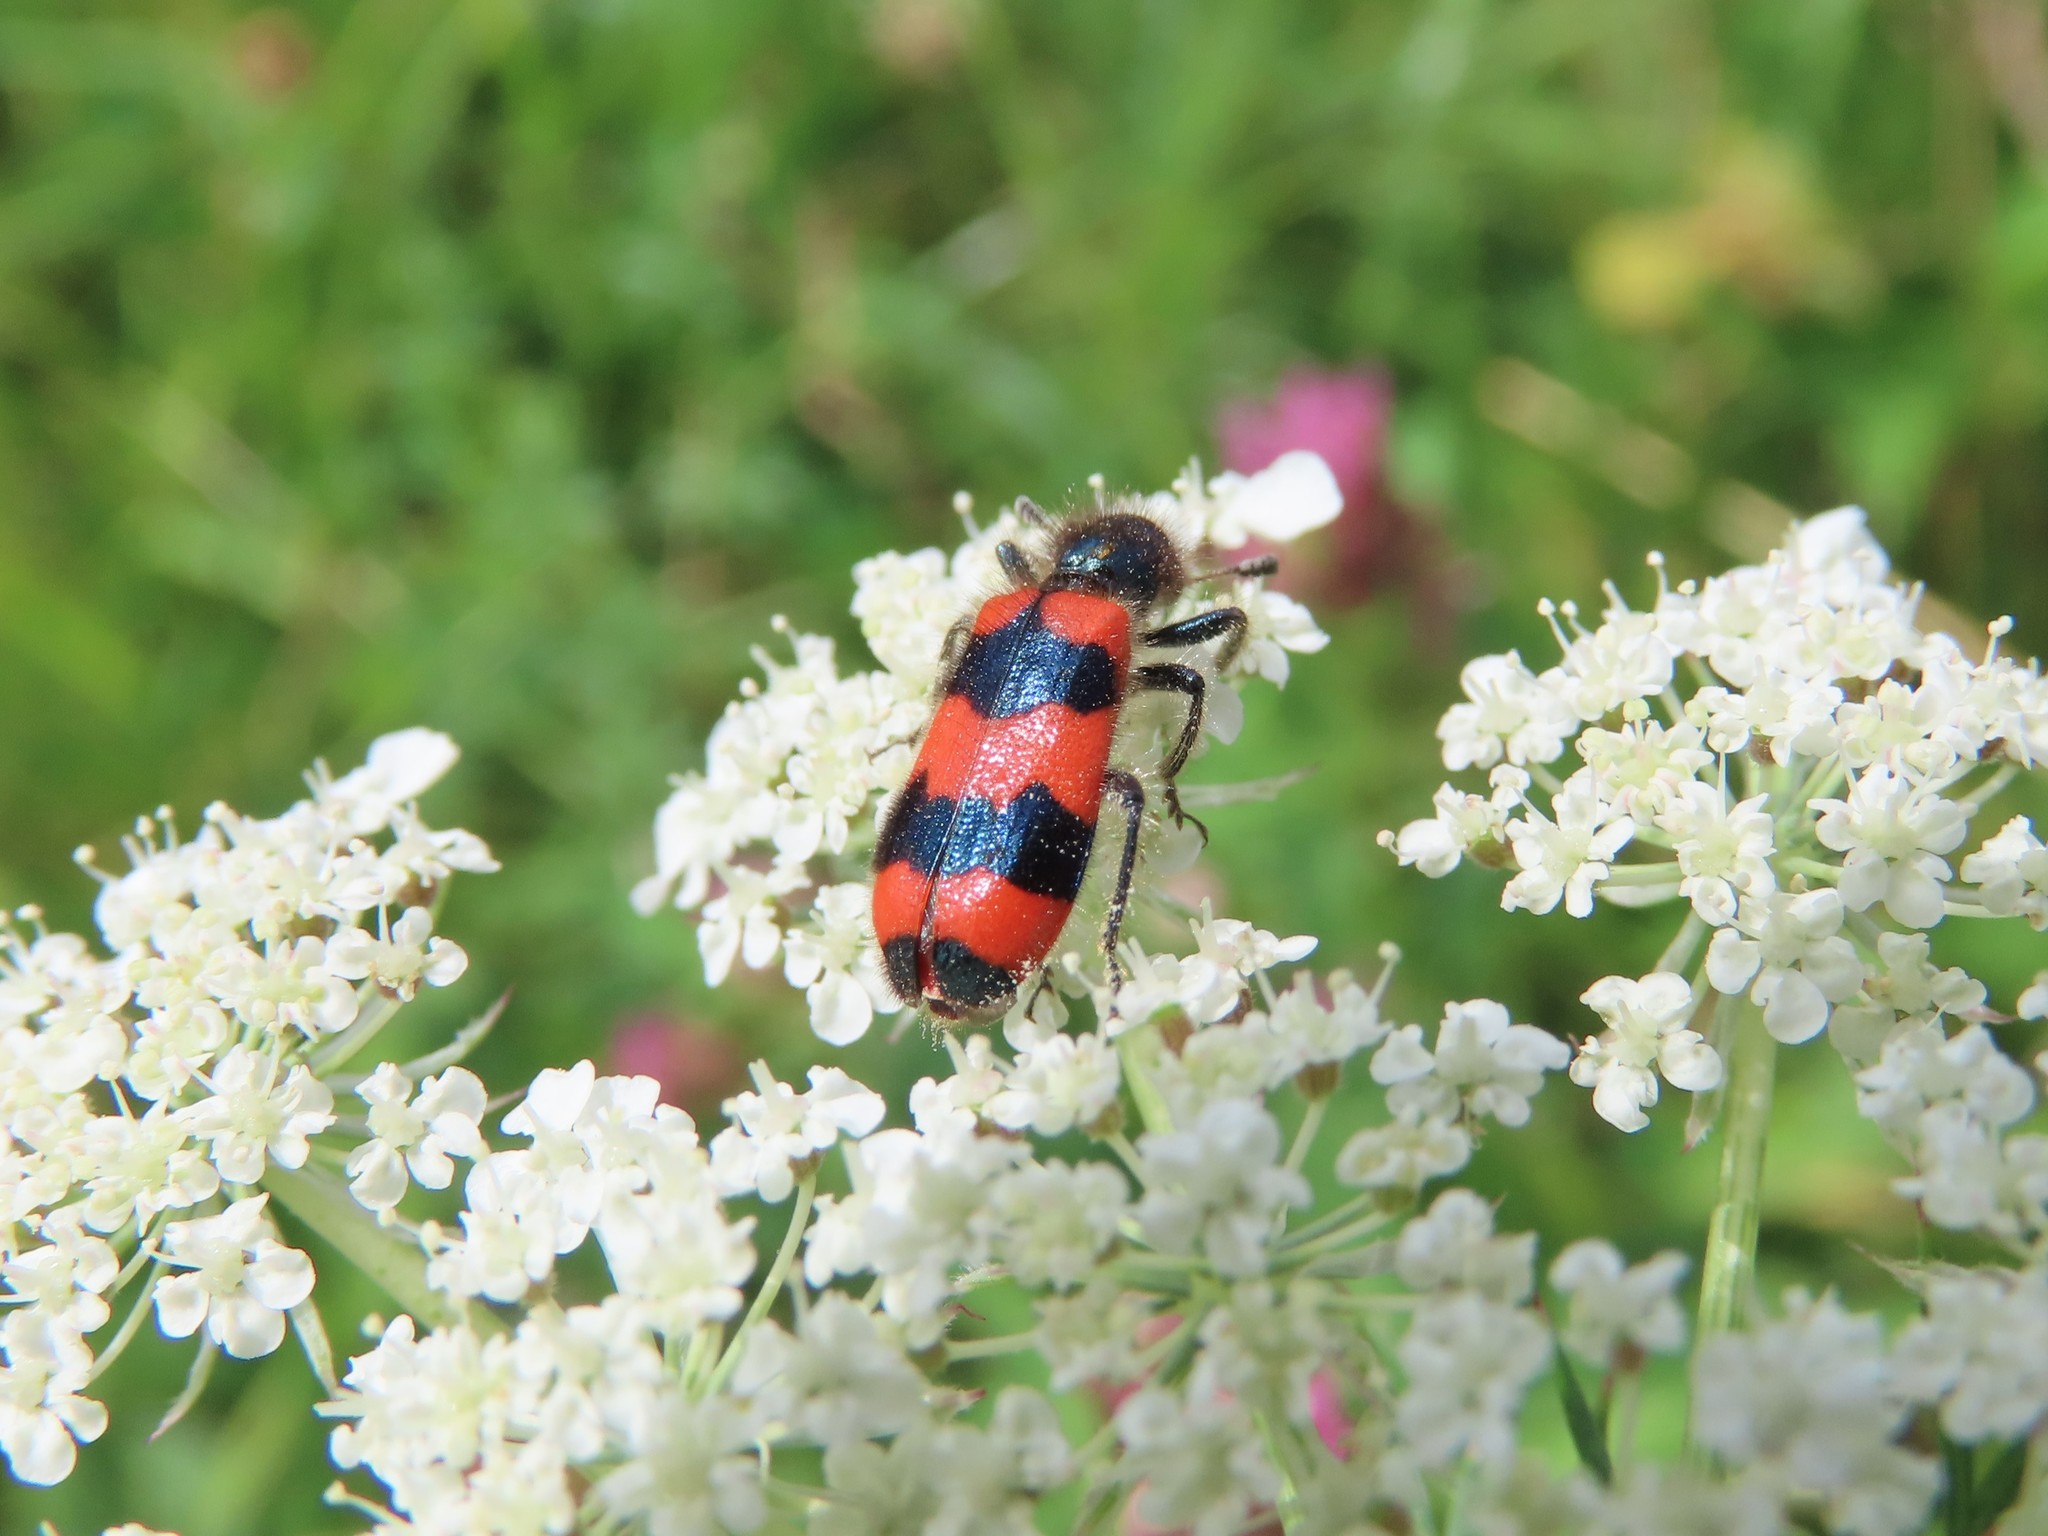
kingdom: Animalia
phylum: Arthropoda
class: Insecta
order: Coleoptera
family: Cleridae
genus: Trichodes
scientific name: Trichodes apiarius
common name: Bee-eating beetle
